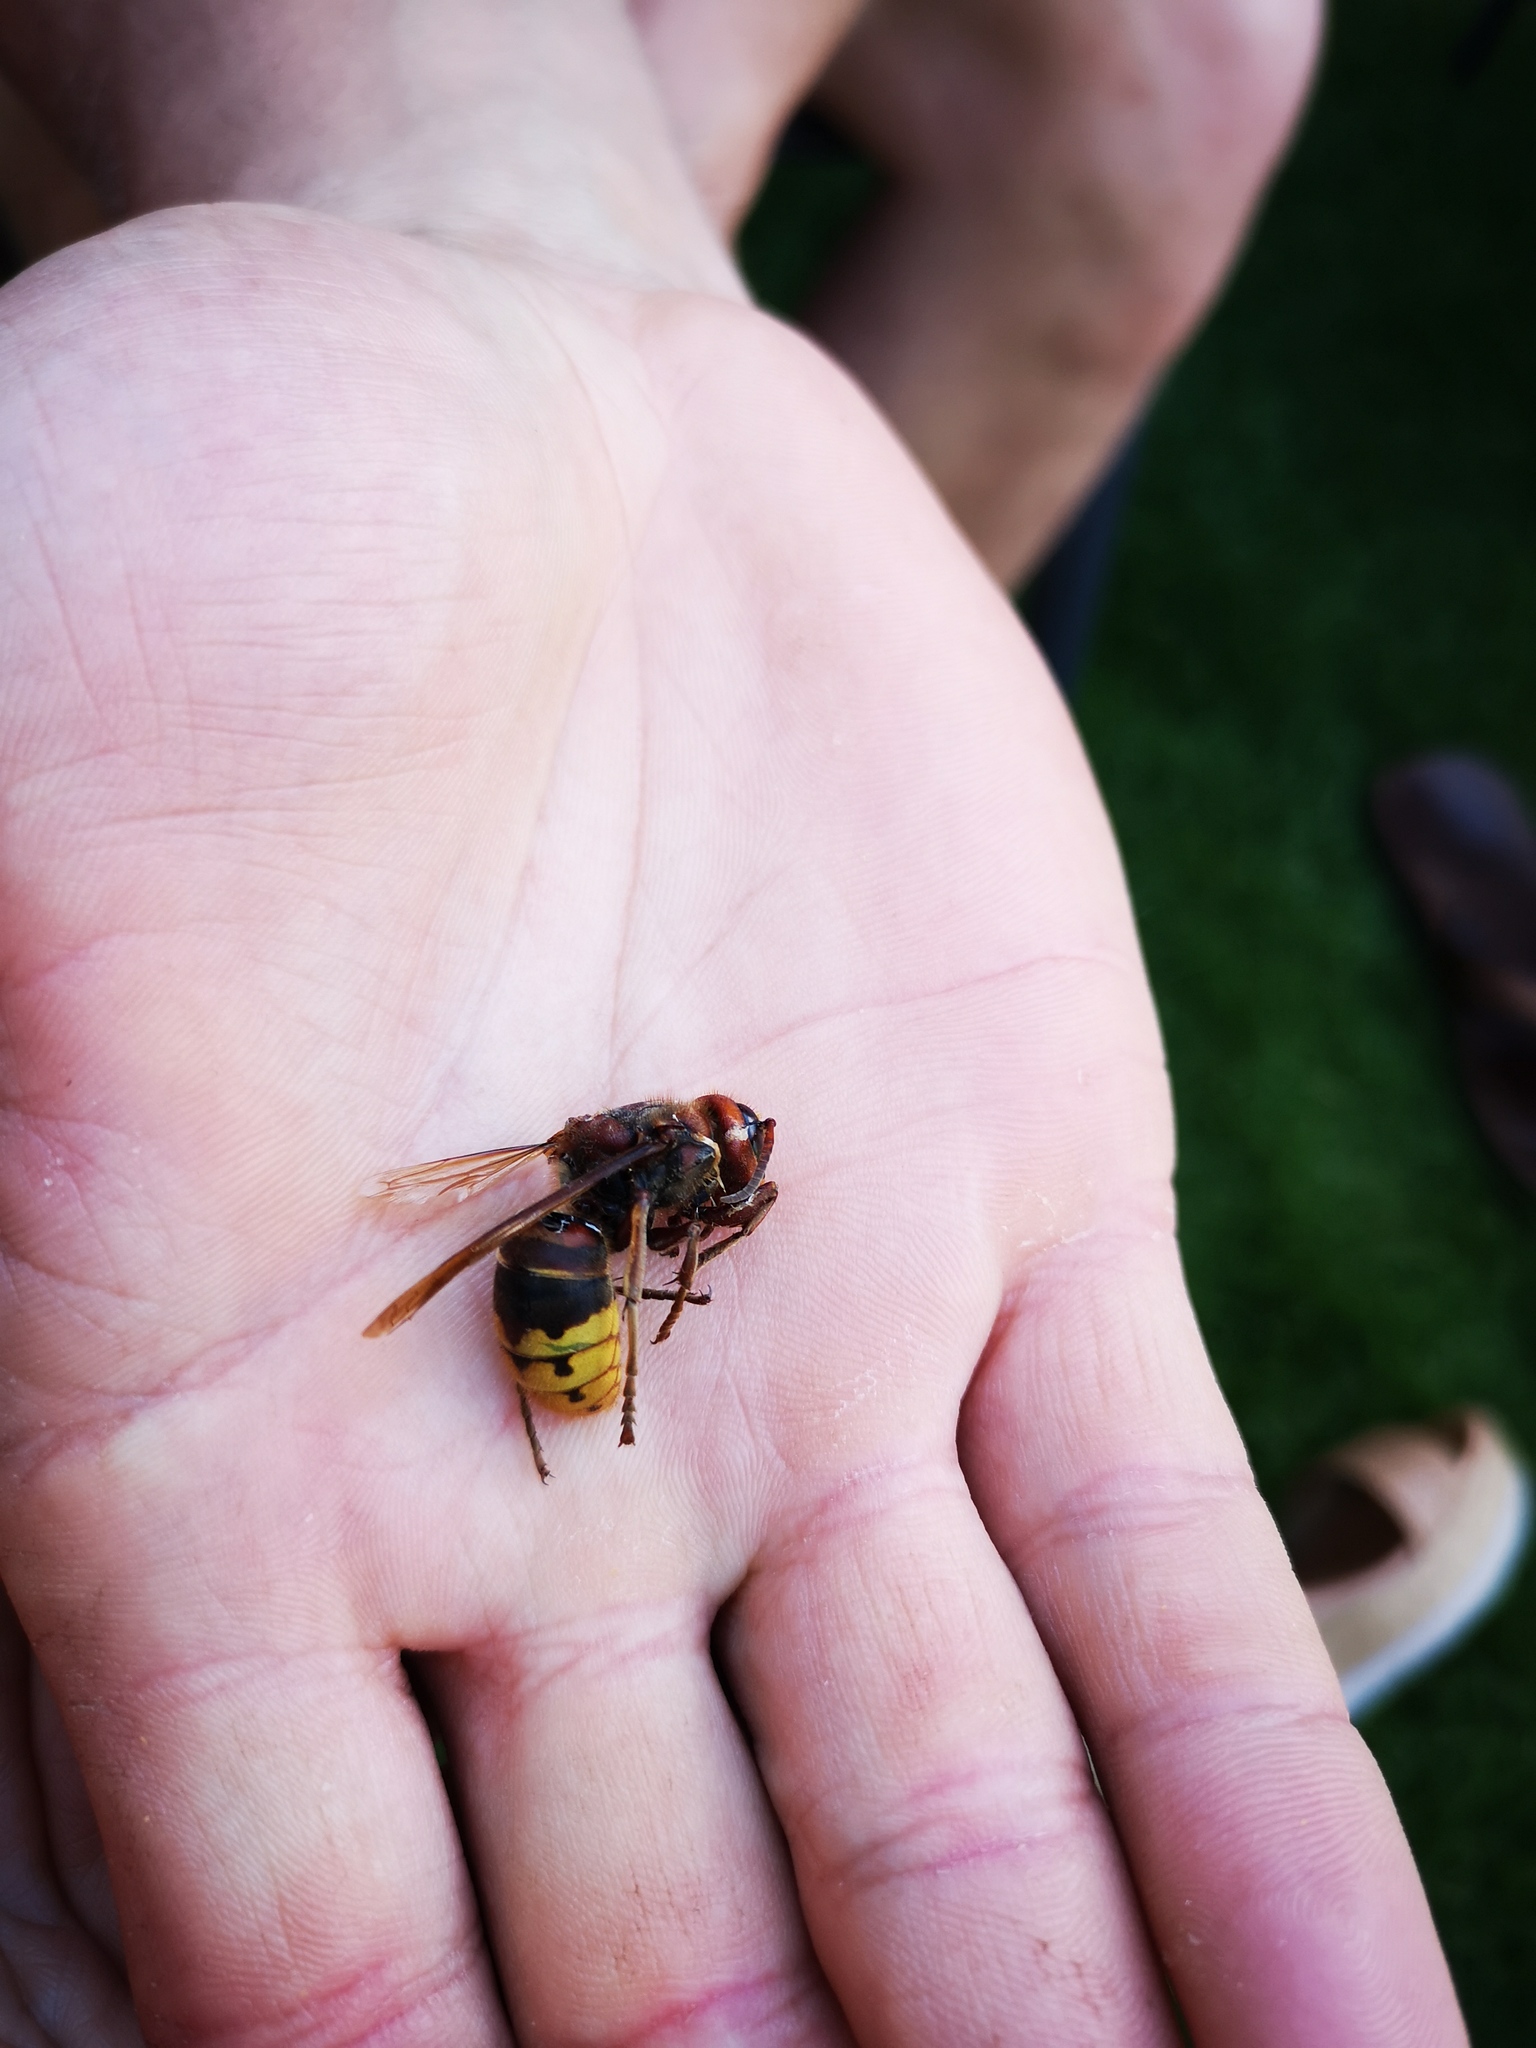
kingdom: Animalia
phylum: Arthropoda
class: Insecta
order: Hymenoptera
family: Vespidae
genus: Vespa
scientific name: Vespa crabro
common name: Hornet
